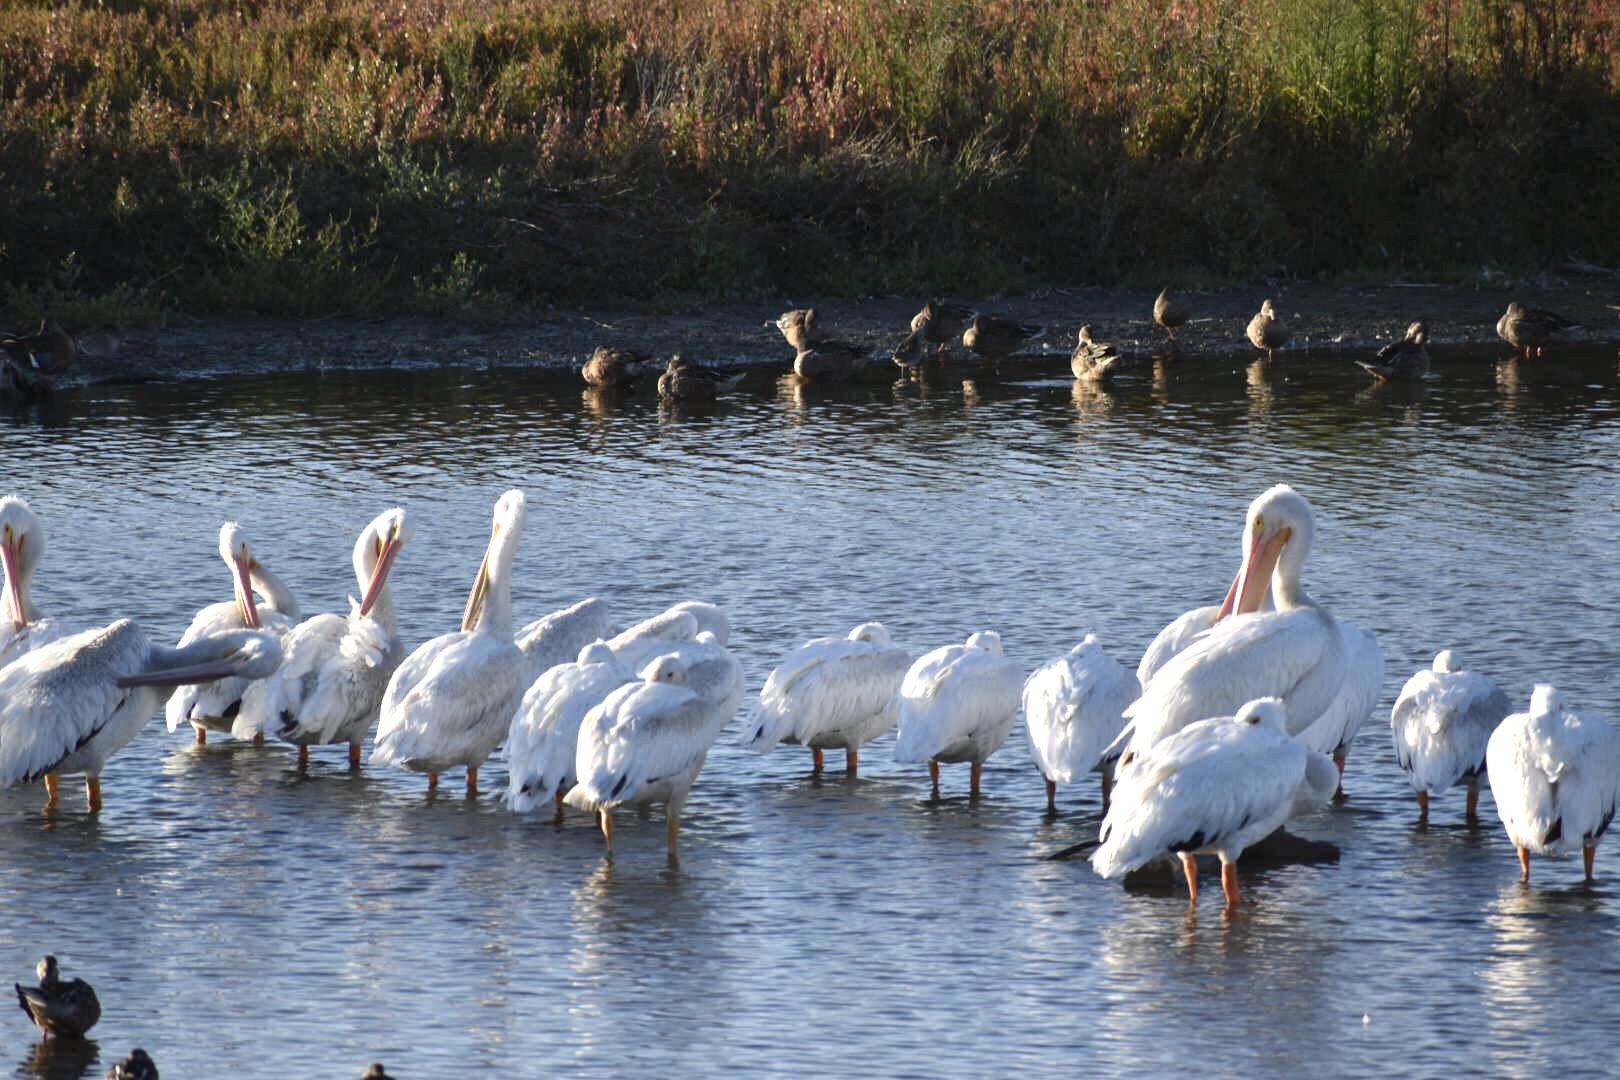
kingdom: Animalia
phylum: Chordata
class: Aves
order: Pelecaniformes
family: Pelecanidae
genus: Pelecanus
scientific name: Pelecanus erythrorhynchos
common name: American white pelican
